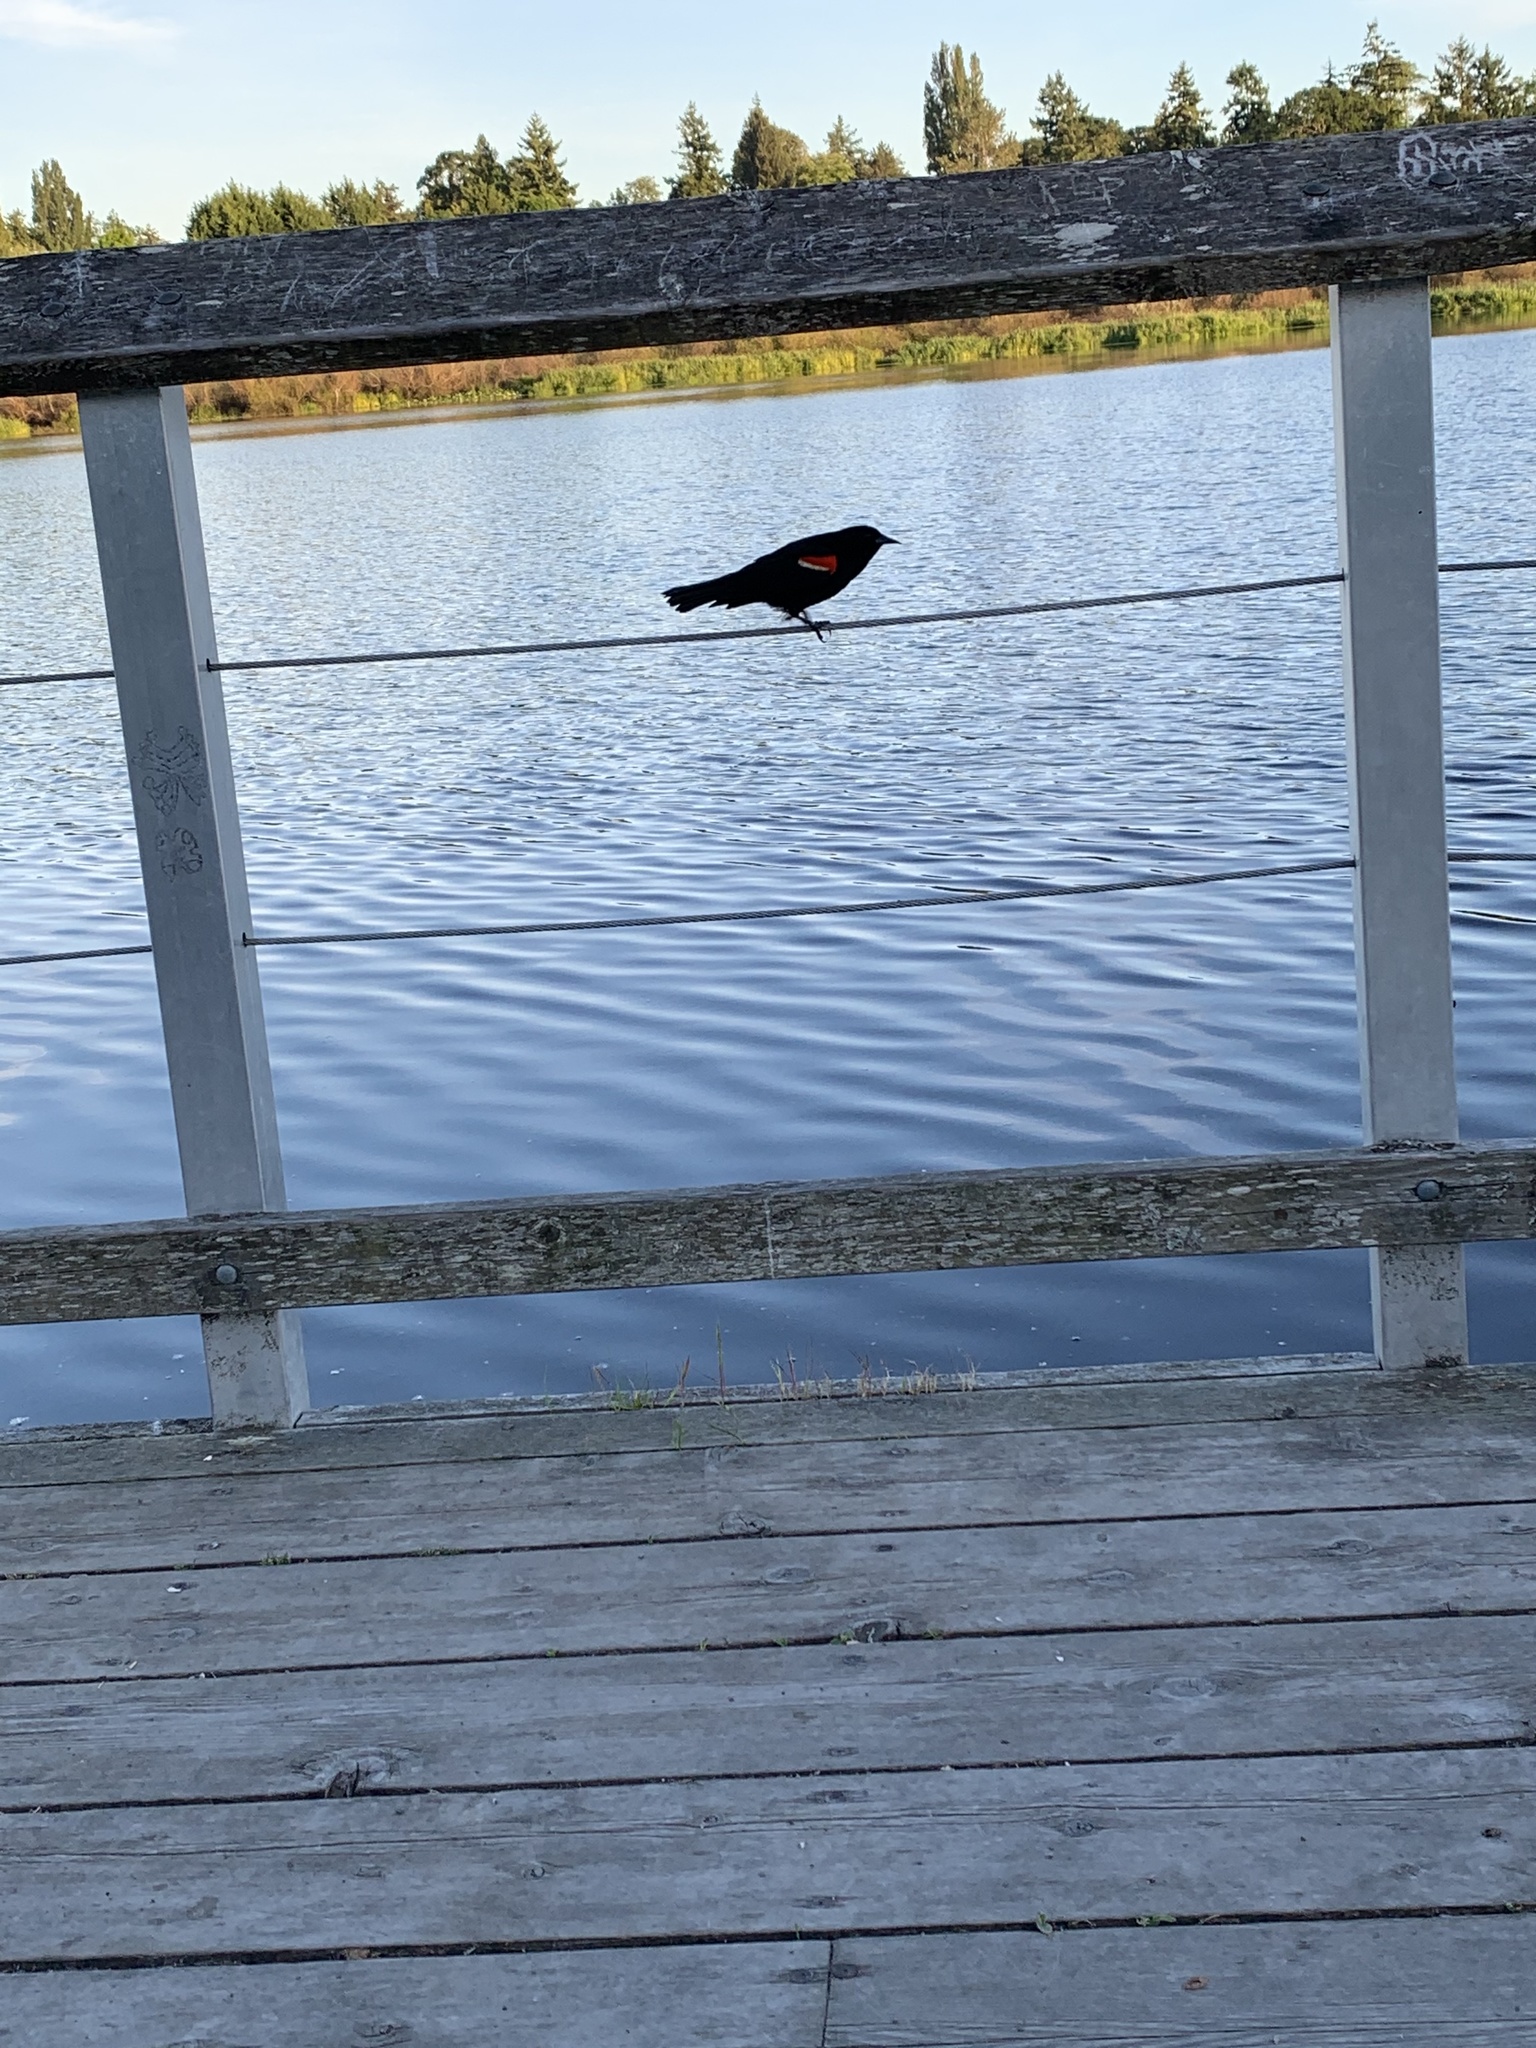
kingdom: Animalia
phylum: Chordata
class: Aves
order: Passeriformes
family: Icteridae
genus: Agelaius
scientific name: Agelaius phoeniceus
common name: Red-winged blackbird
